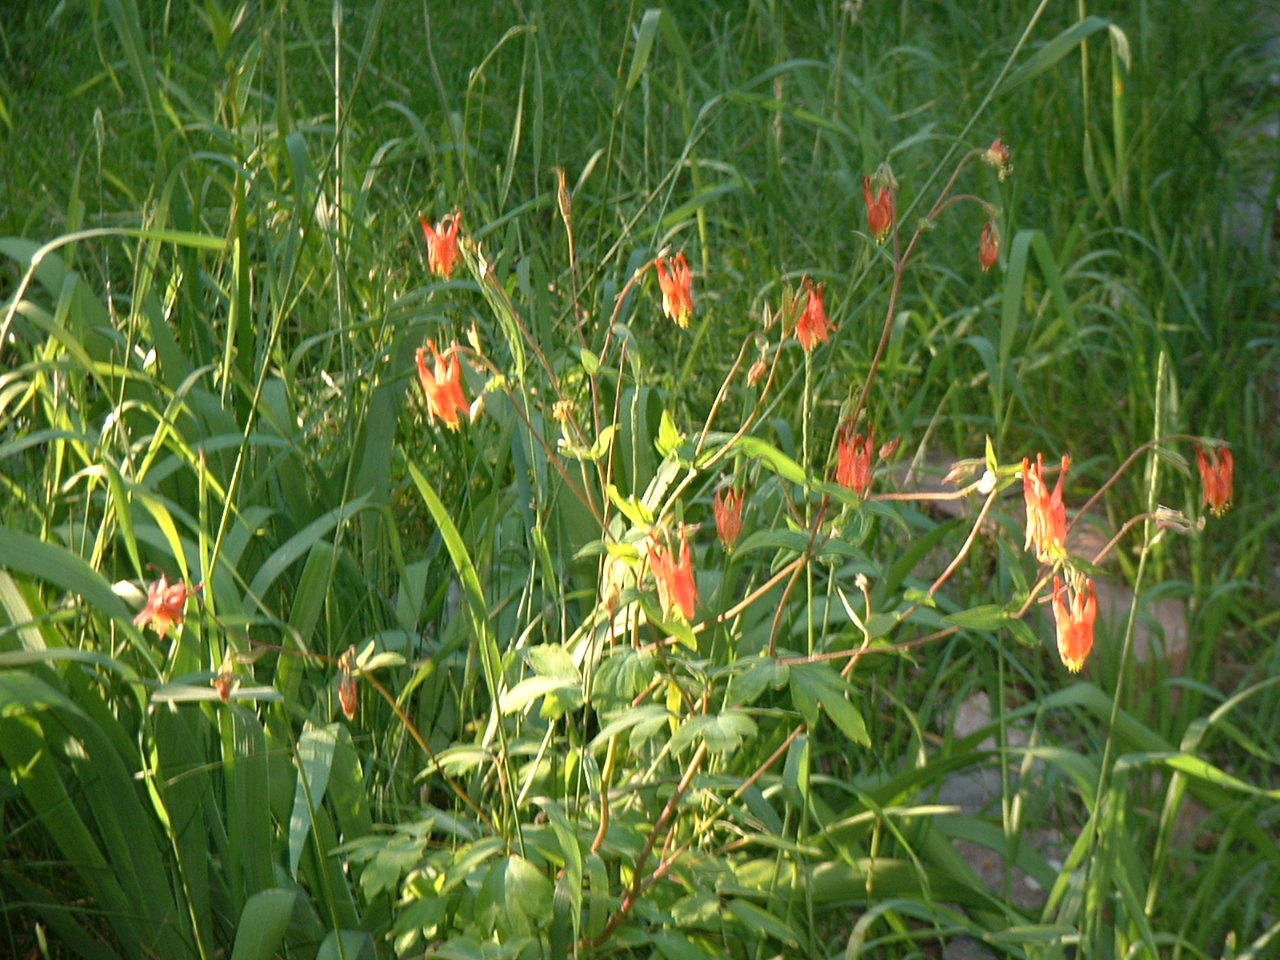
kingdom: Plantae
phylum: Tracheophyta
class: Magnoliopsida
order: Ranunculales
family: Ranunculaceae
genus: Aquilegia
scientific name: Aquilegia canadensis
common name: American columbine
